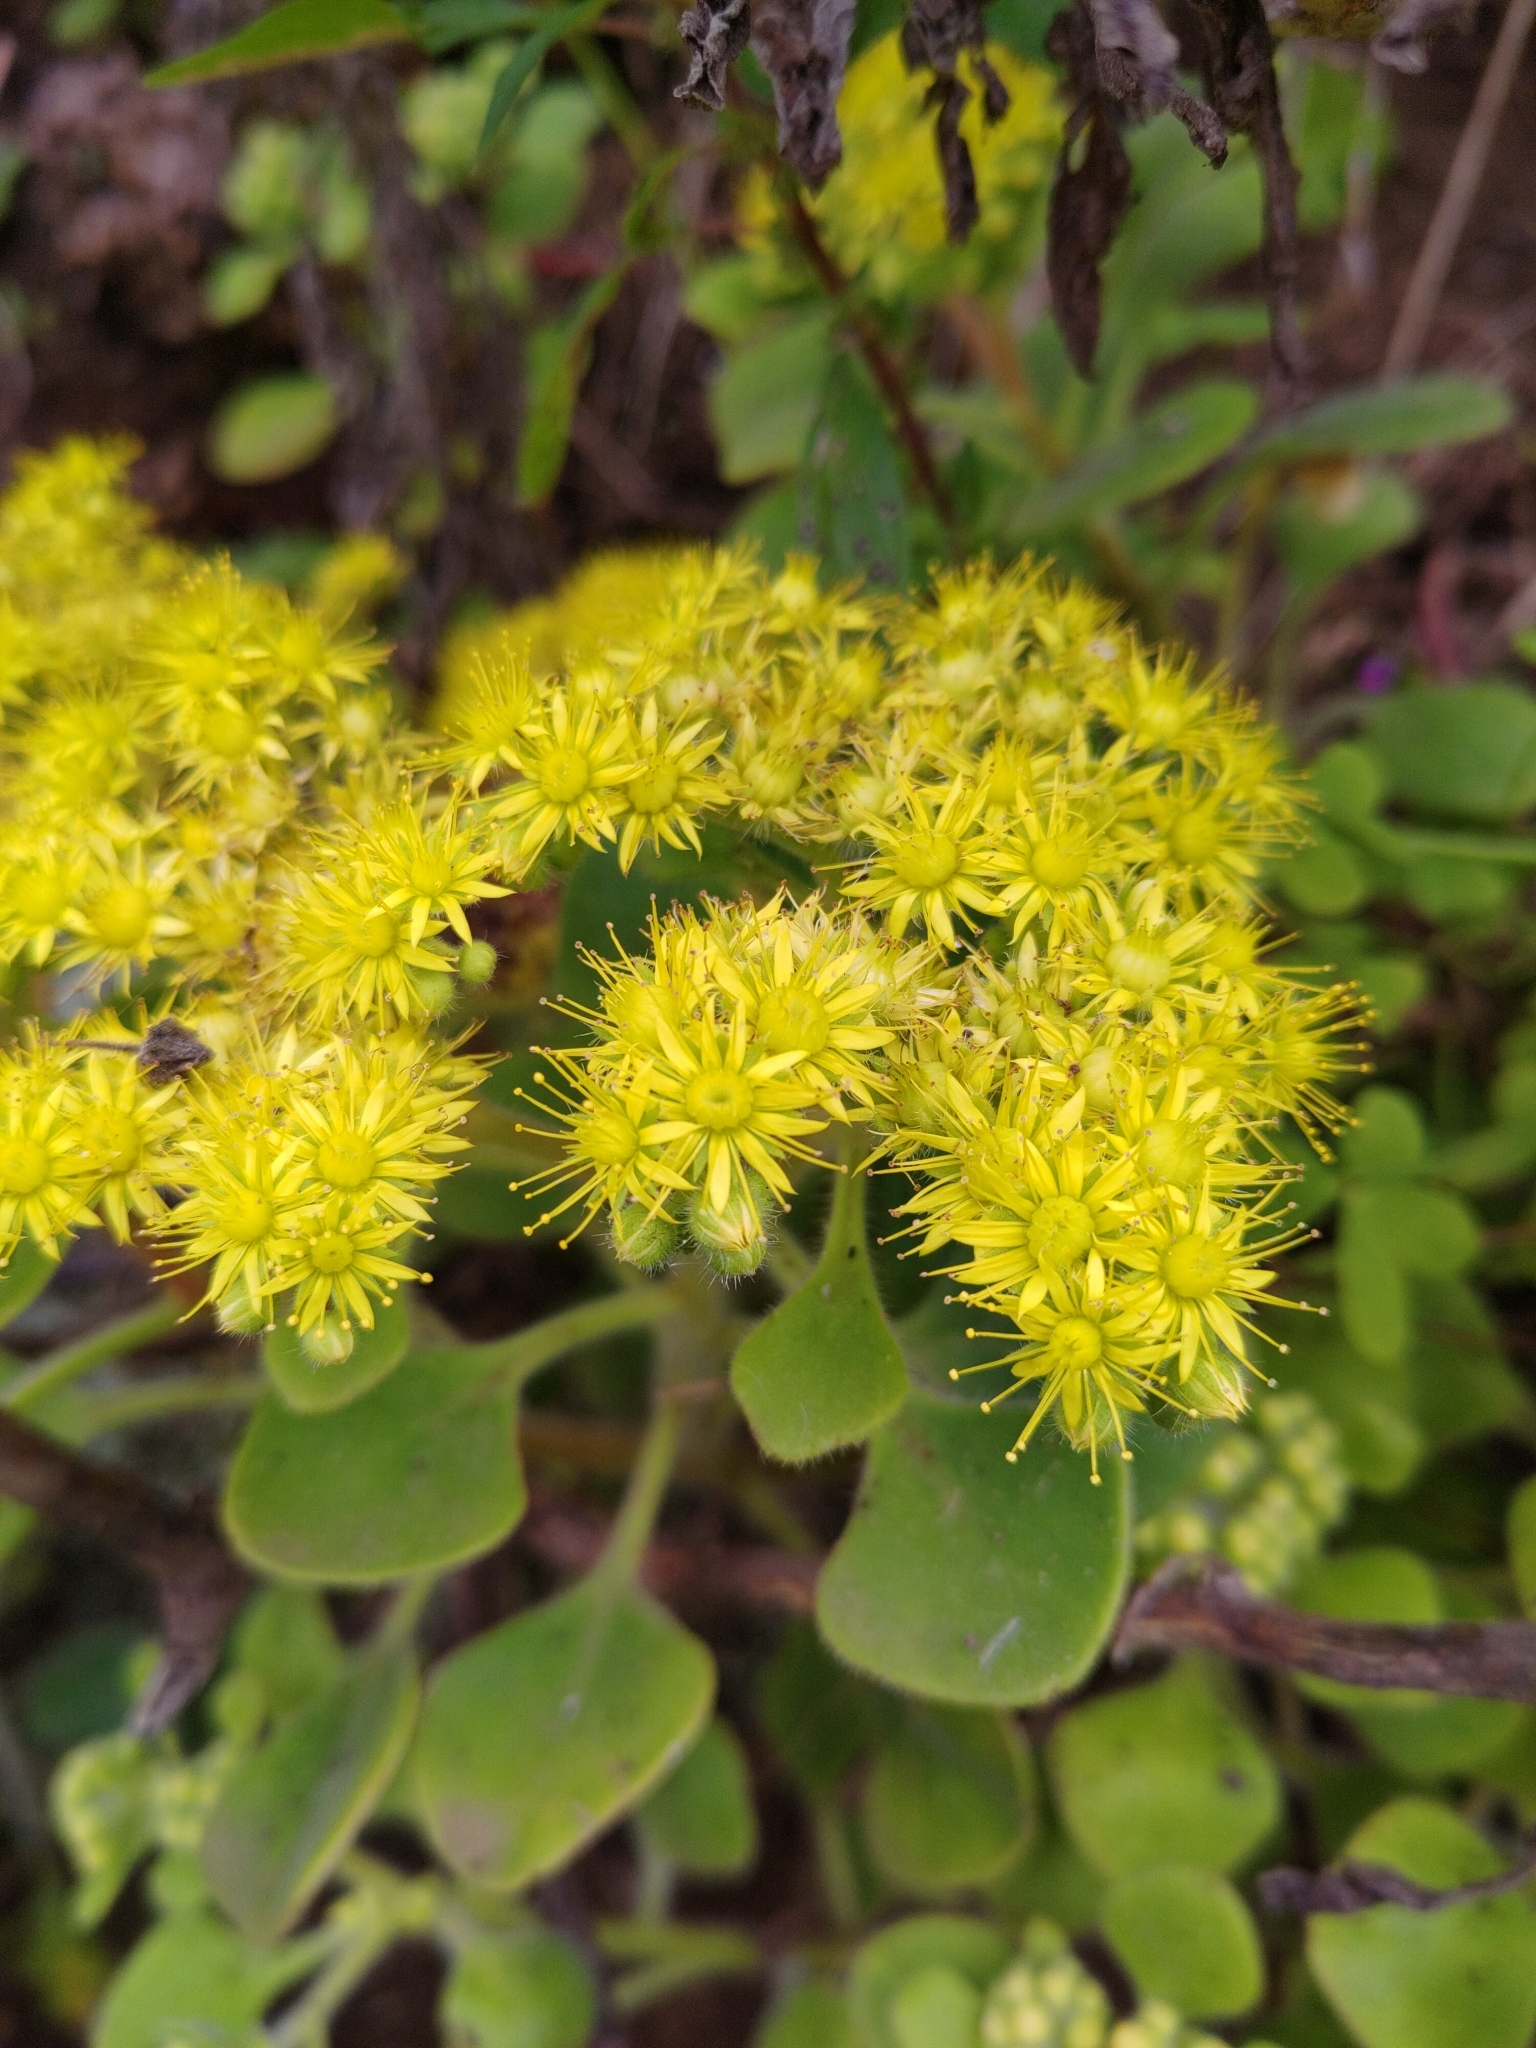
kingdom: Plantae
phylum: Tracheophyta
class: Magnoliopsida
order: Saxifragales
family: Crassulaceae
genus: Aichryson
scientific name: Aichryson laxum
